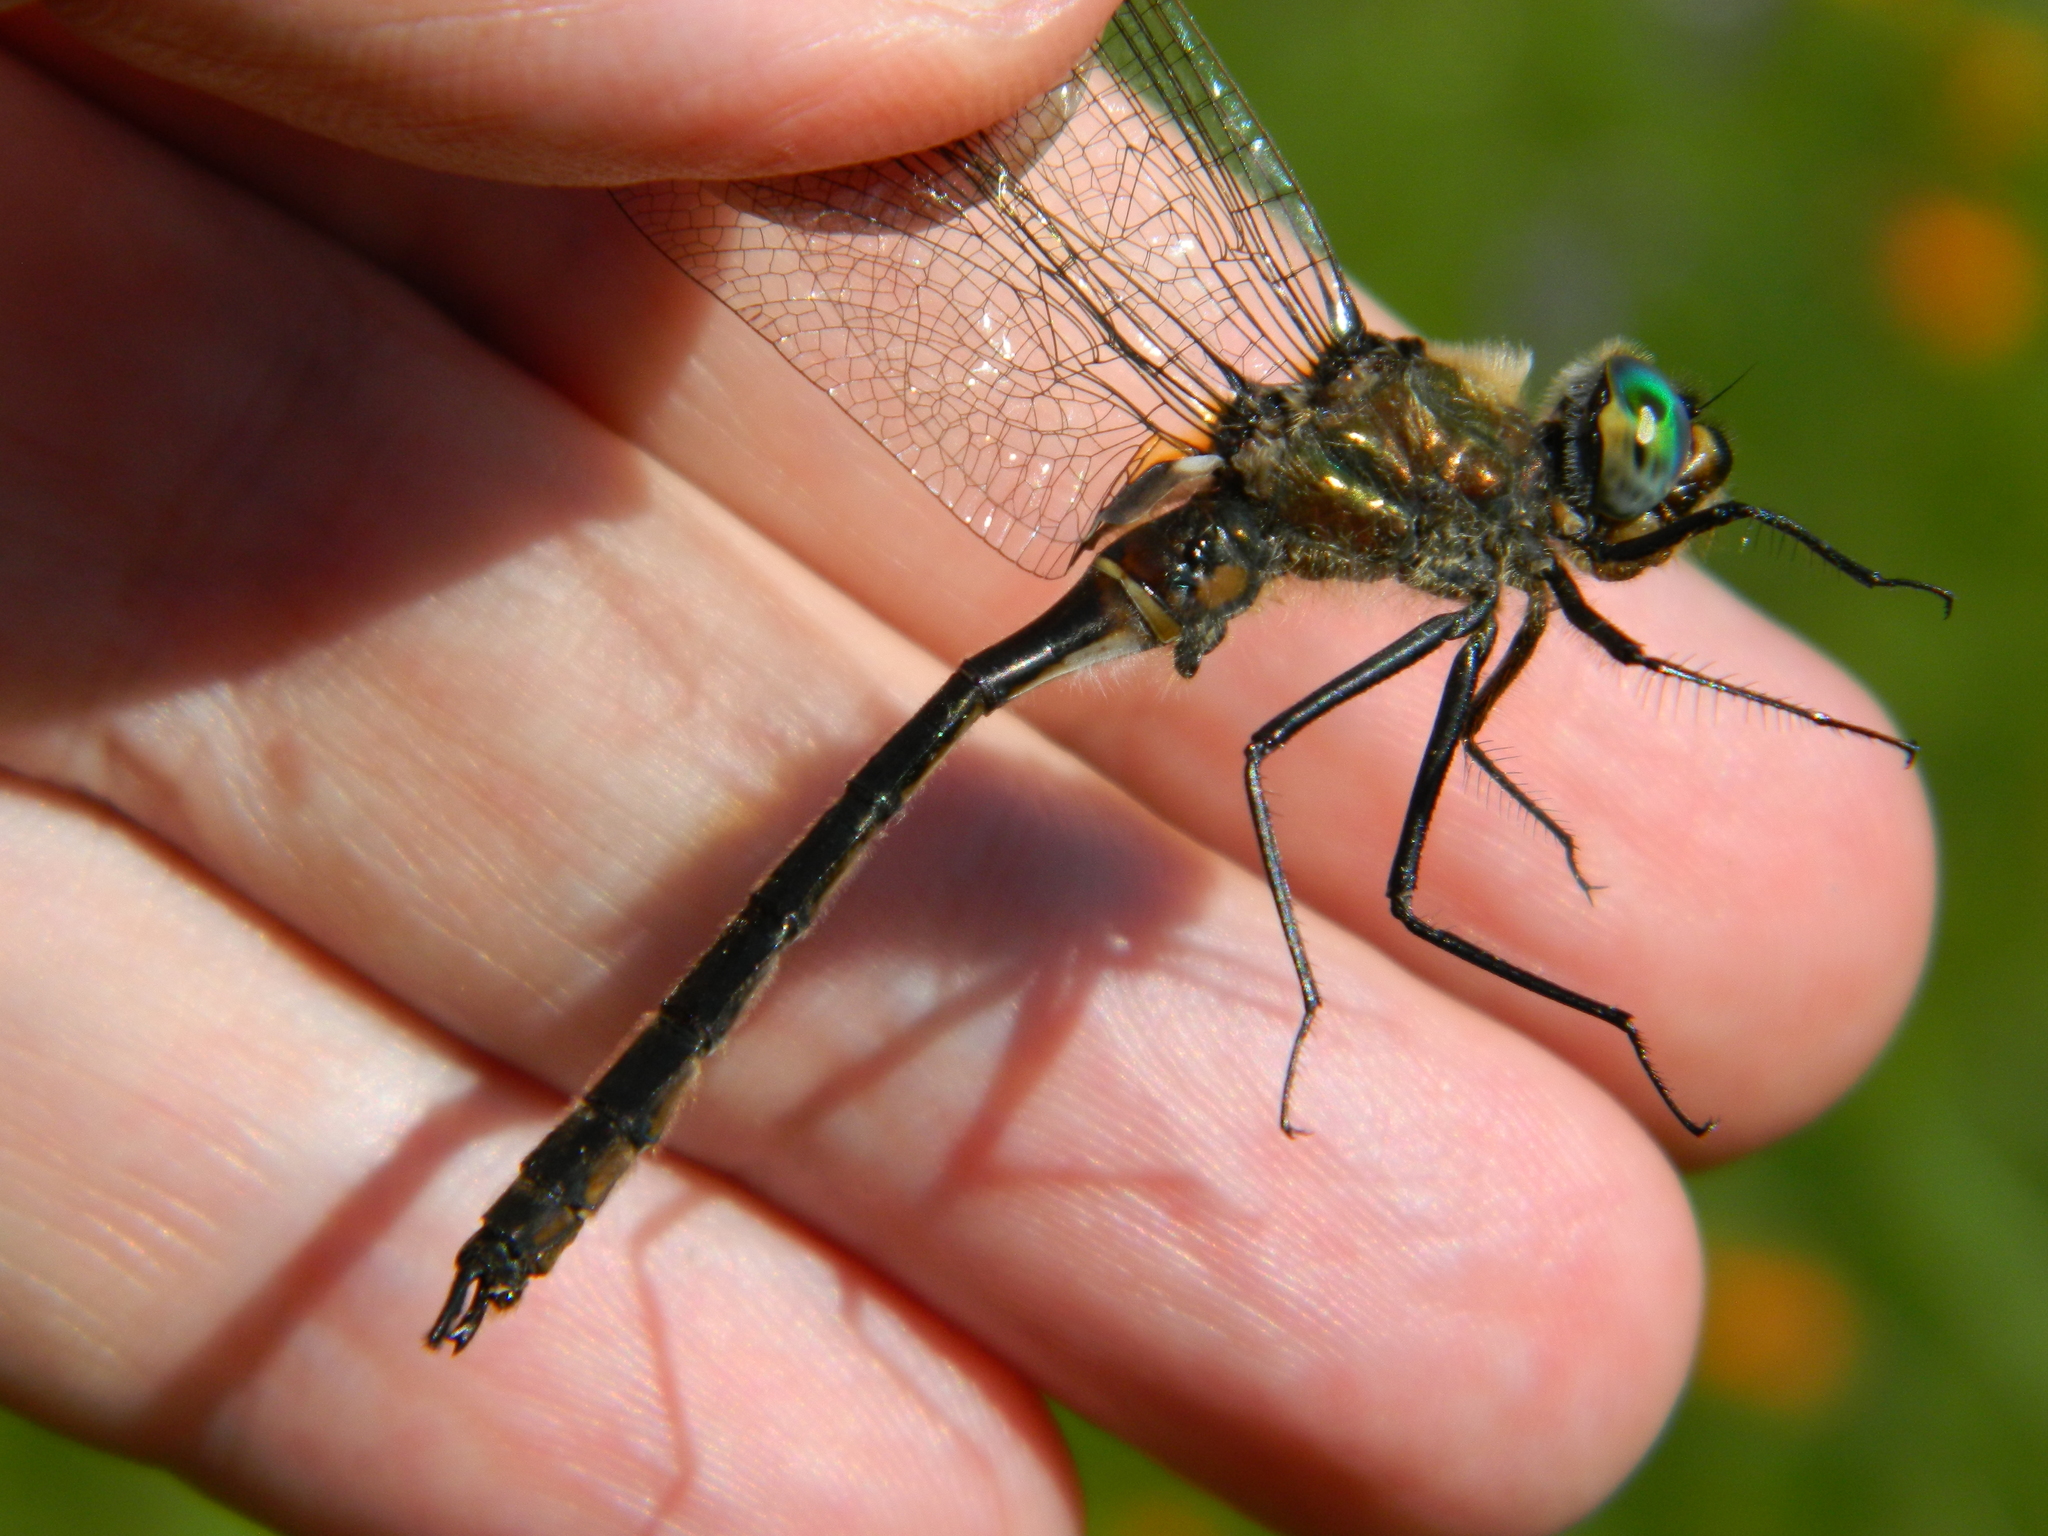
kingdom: Animalia
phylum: Arthropoda
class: Insecta
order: Odonata
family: Corduliidae
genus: Cordulia
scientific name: Cordulia shurtleffii
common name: American emerald
